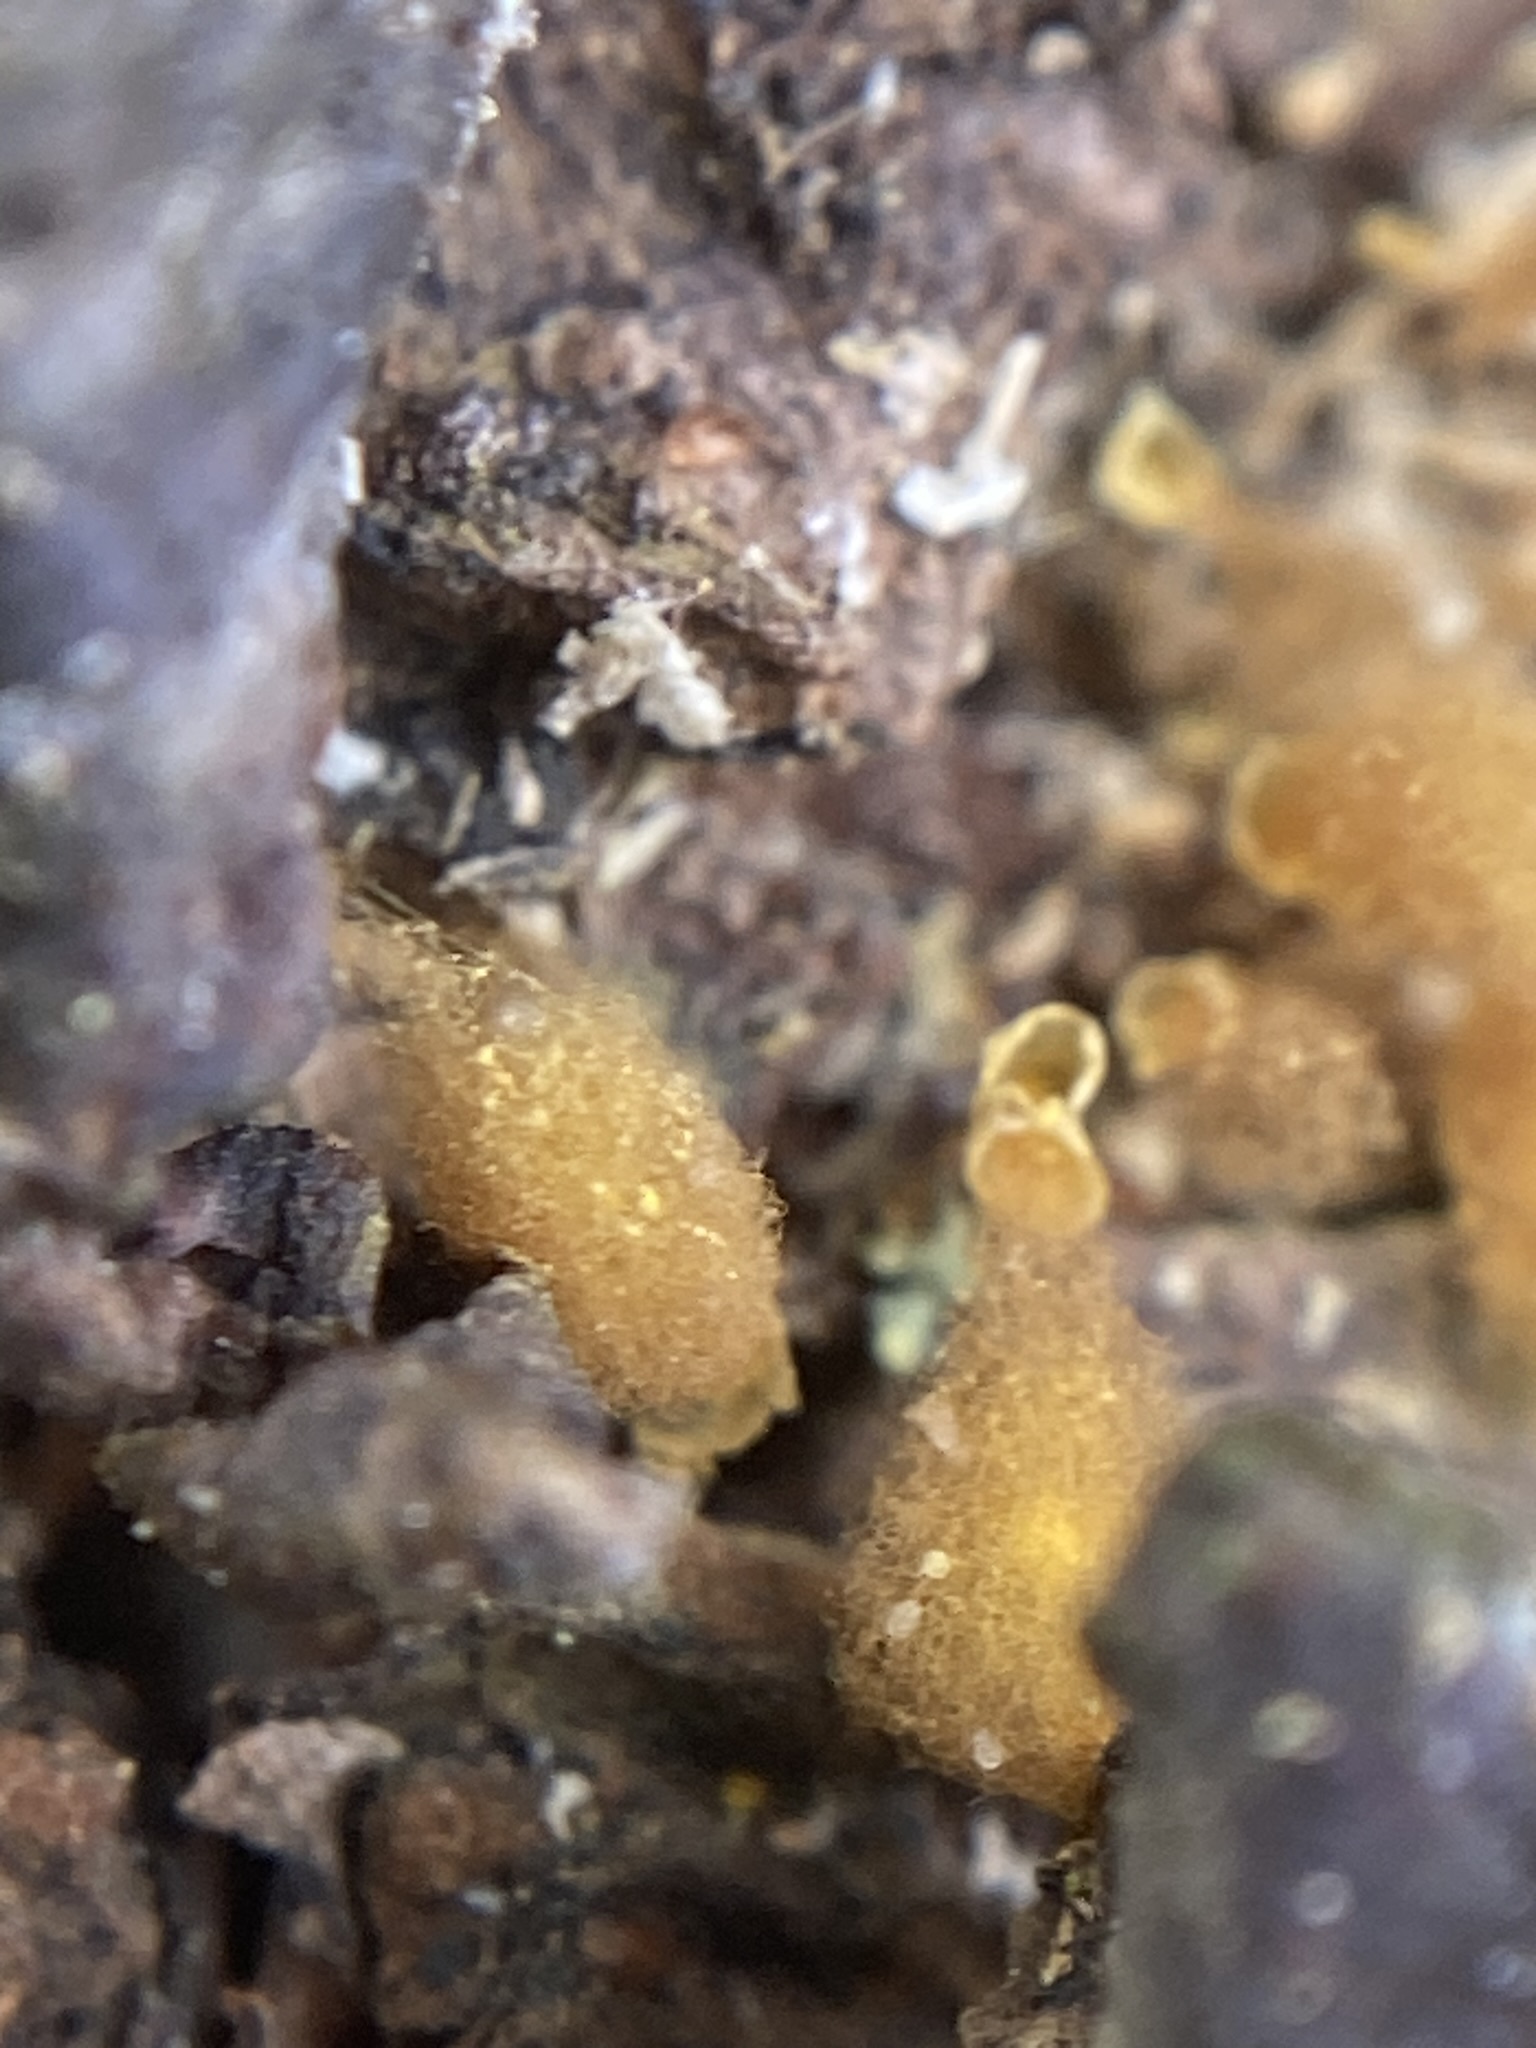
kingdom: Protozoa
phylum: Mycetozoa
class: Myxomycetes
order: Trichiales
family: Arcyriaceae
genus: Hemitrichia
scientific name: Hemitrichia calyculata
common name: Push pin slime mold
